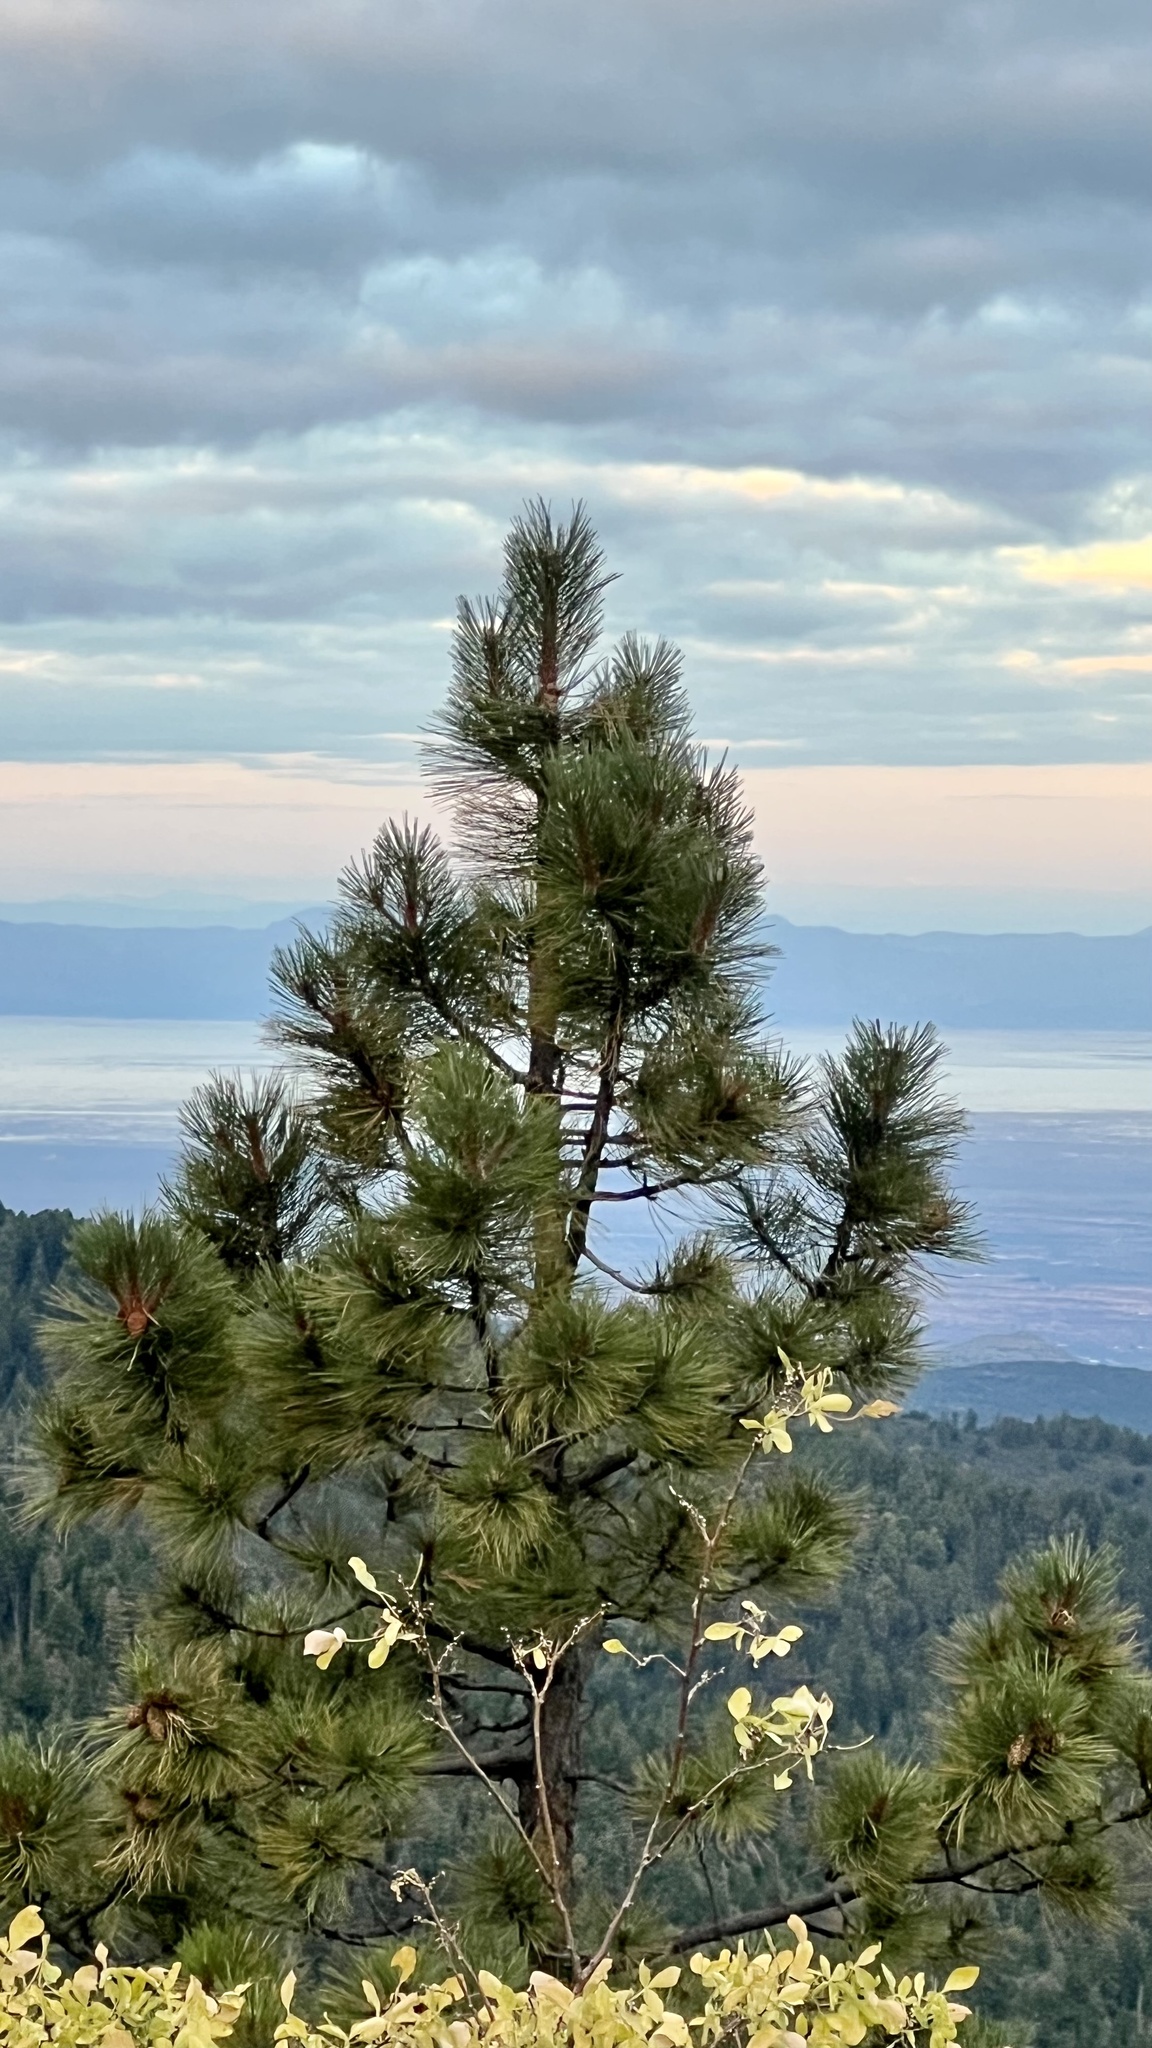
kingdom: Plantae
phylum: Tracheophyta
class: Pinopsida
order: Pinales
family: Pinaceae
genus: Pinus
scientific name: Pinus ponderosa
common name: Western yellow-pine
